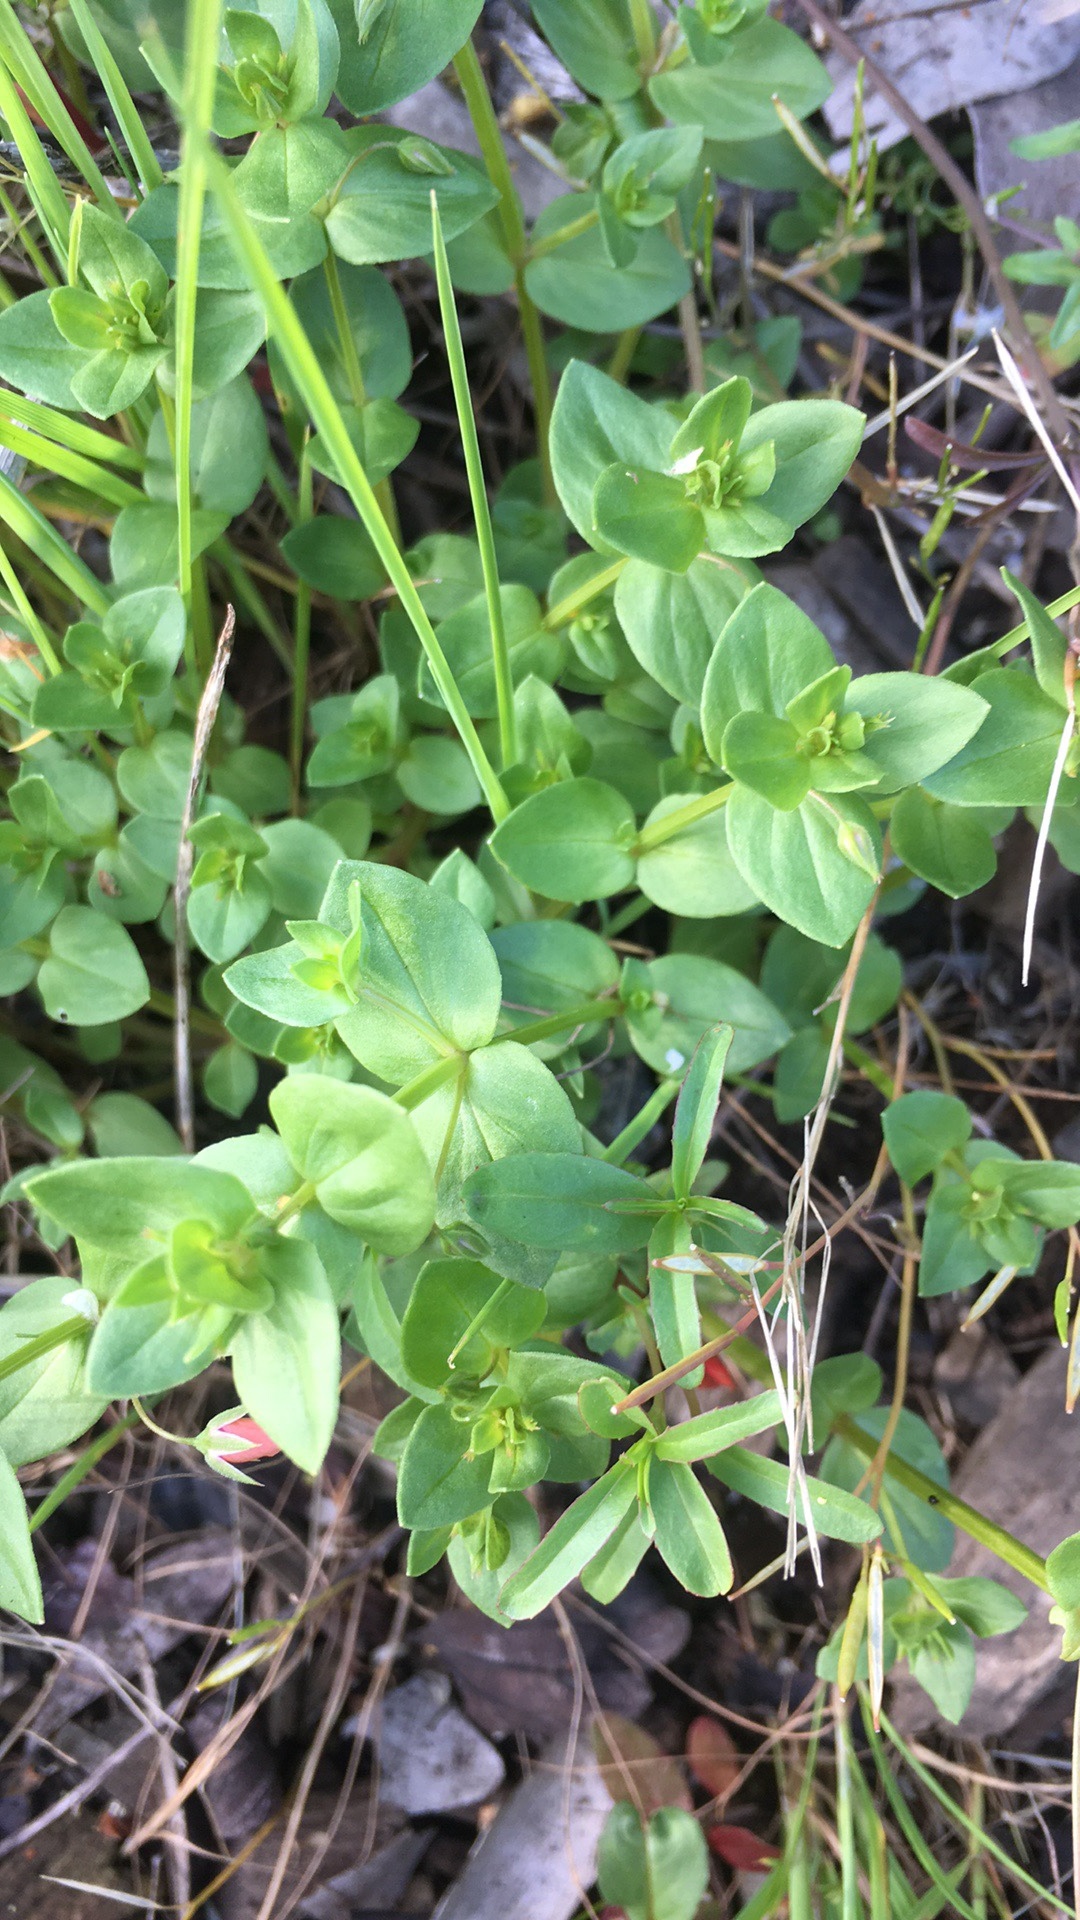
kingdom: Plantae
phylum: Tracheophyta
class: Magnoliopsida
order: Ericales
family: Primulaceae
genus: Lysimachia
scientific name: Lysimachia arvensis
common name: Scarlet pimpernel
